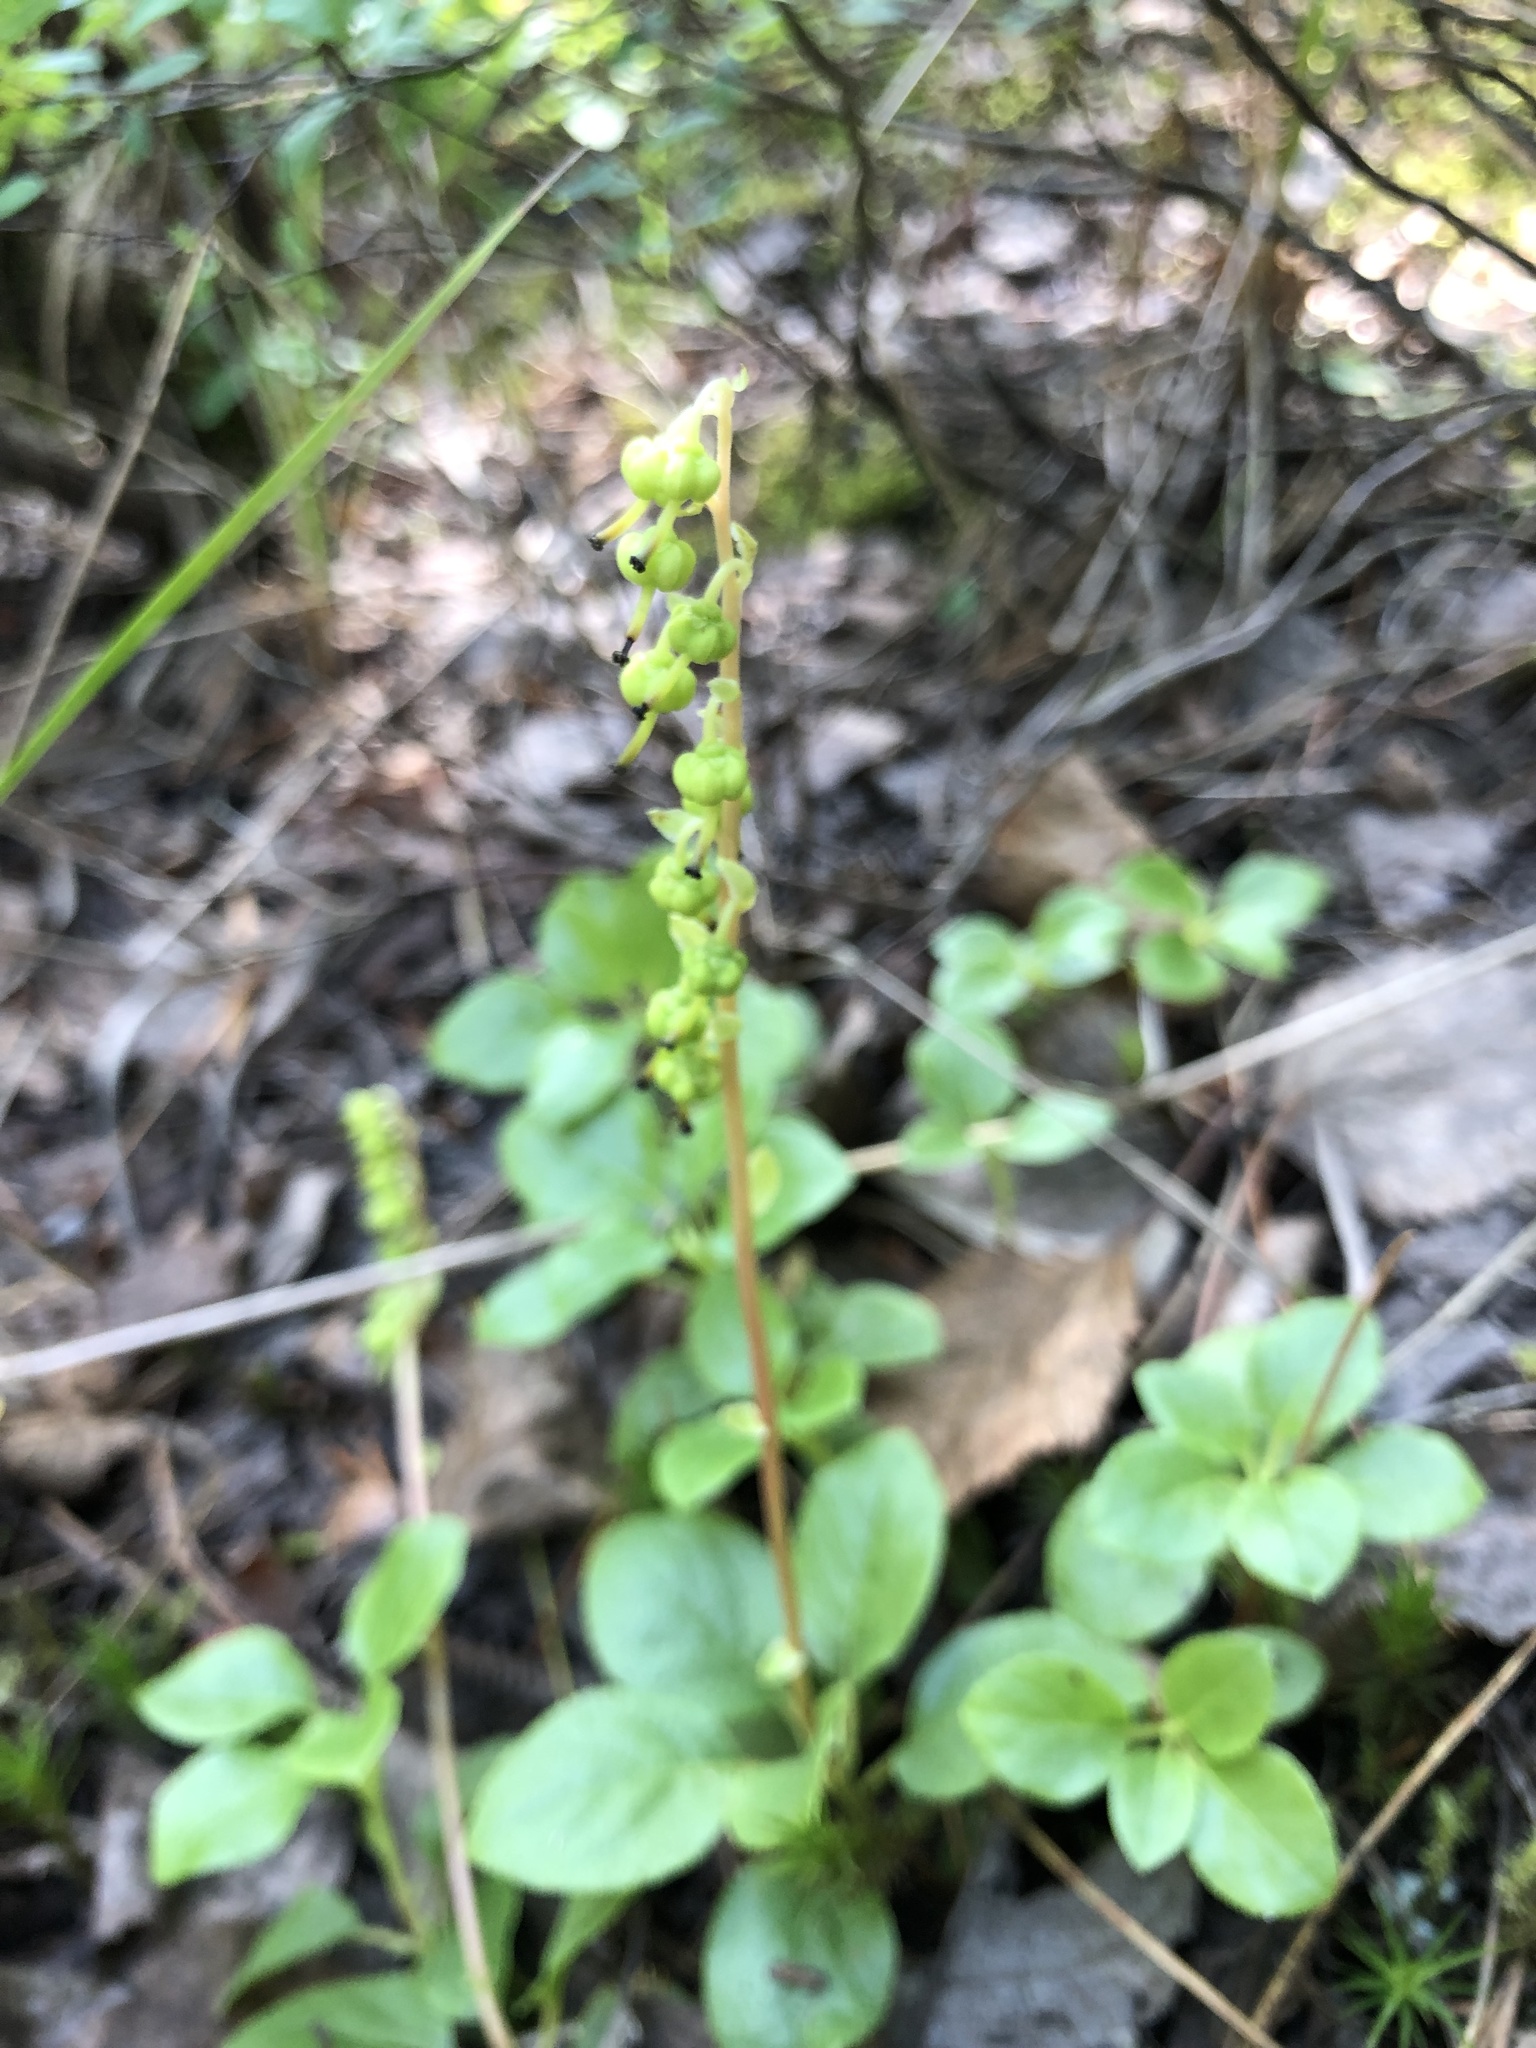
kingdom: Plantae
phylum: Tracheophyta
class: Magnoliopsida
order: Ericales
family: Ericaceae
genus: Orthilia
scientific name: Orthilia secunda
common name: One-sided orthilia
